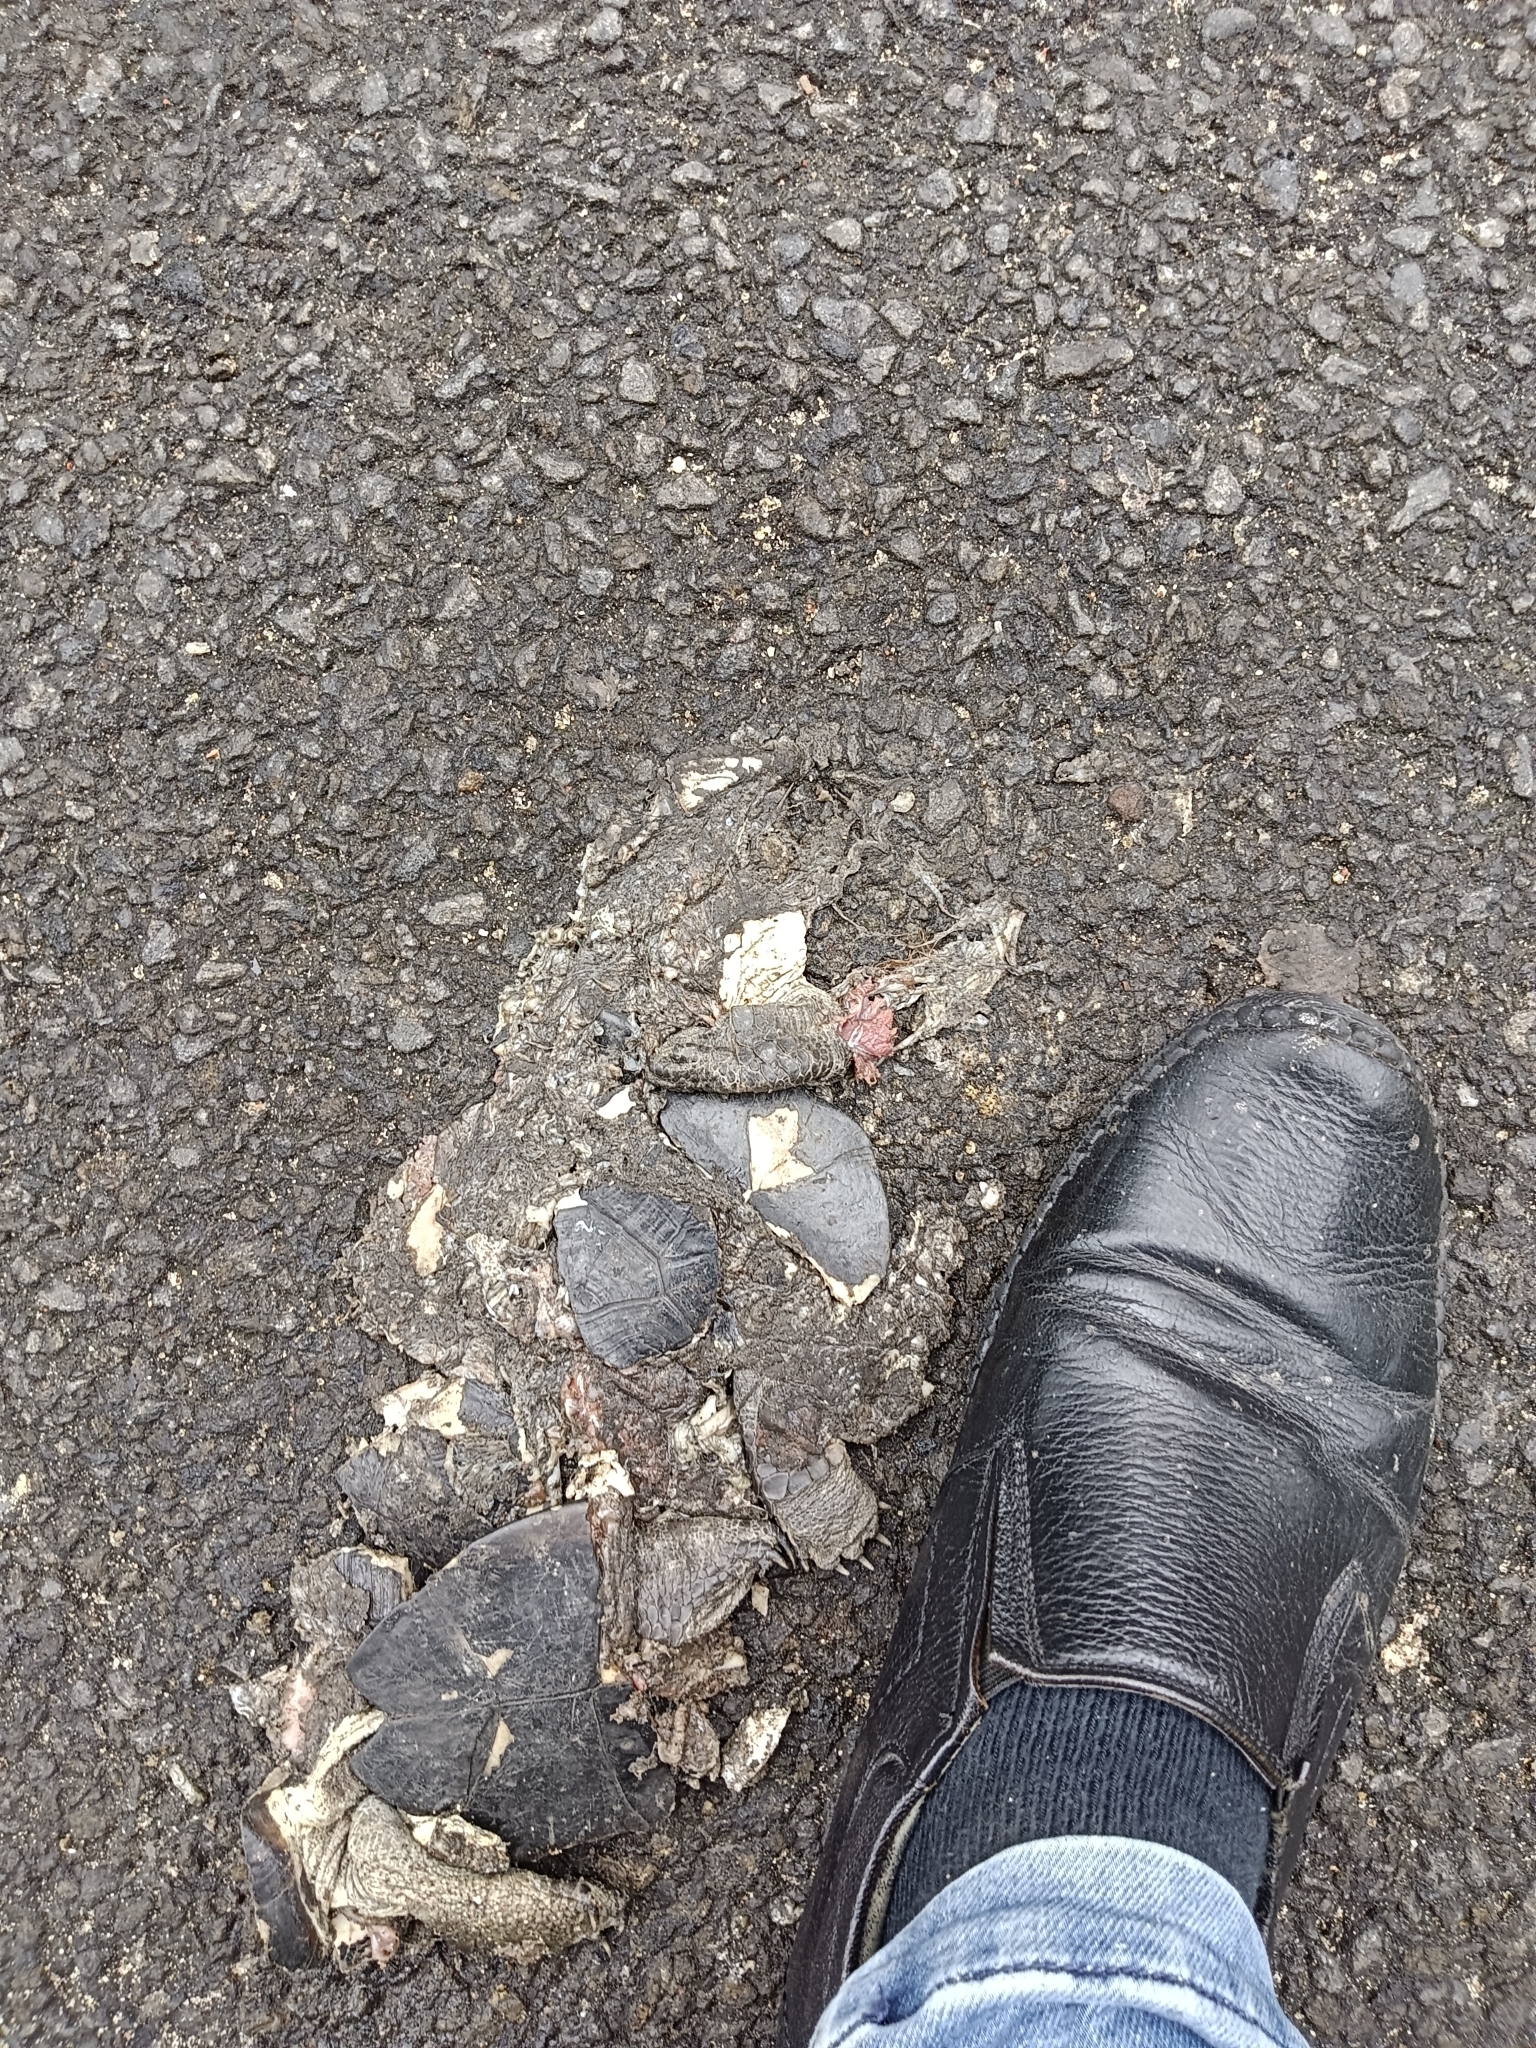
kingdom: Animalia
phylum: Chordata
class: Testudines
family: Geoemydidae
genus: Melanochelys
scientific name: Melanochelys trijuga
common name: Indian black turtle
